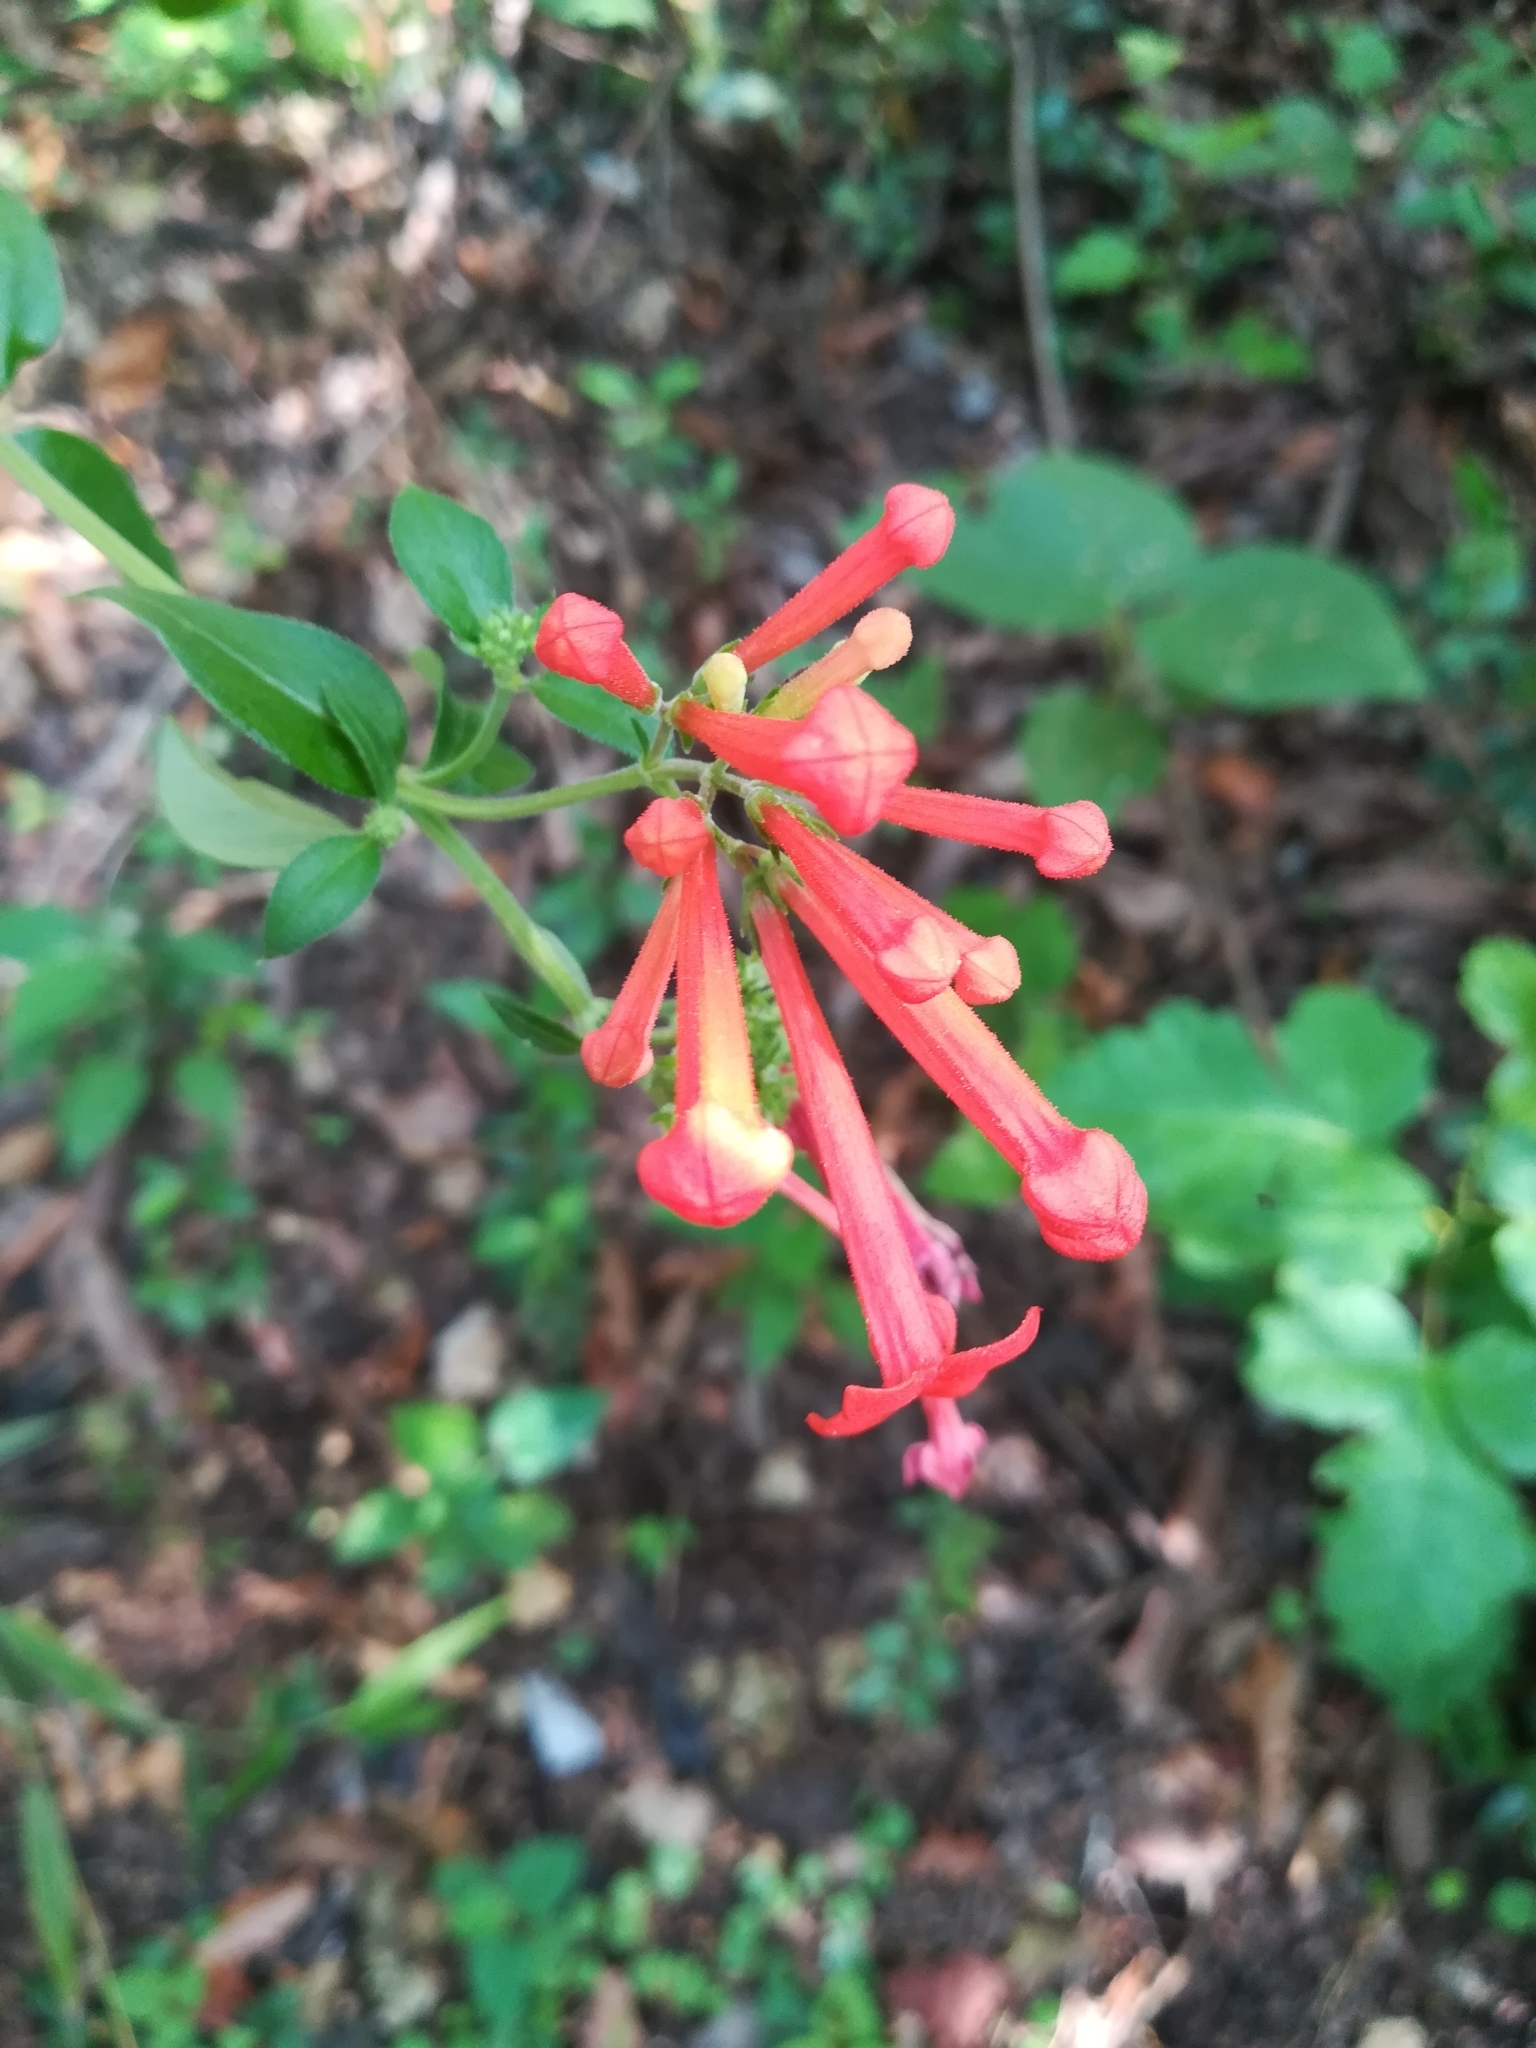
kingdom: Plantae
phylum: Tracheophyta
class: Magnoliopsida
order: Gentianales
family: Rubiaceae
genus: Bouvardia
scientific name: Bouvardia ternifolia
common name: Scarlet bouvardia
